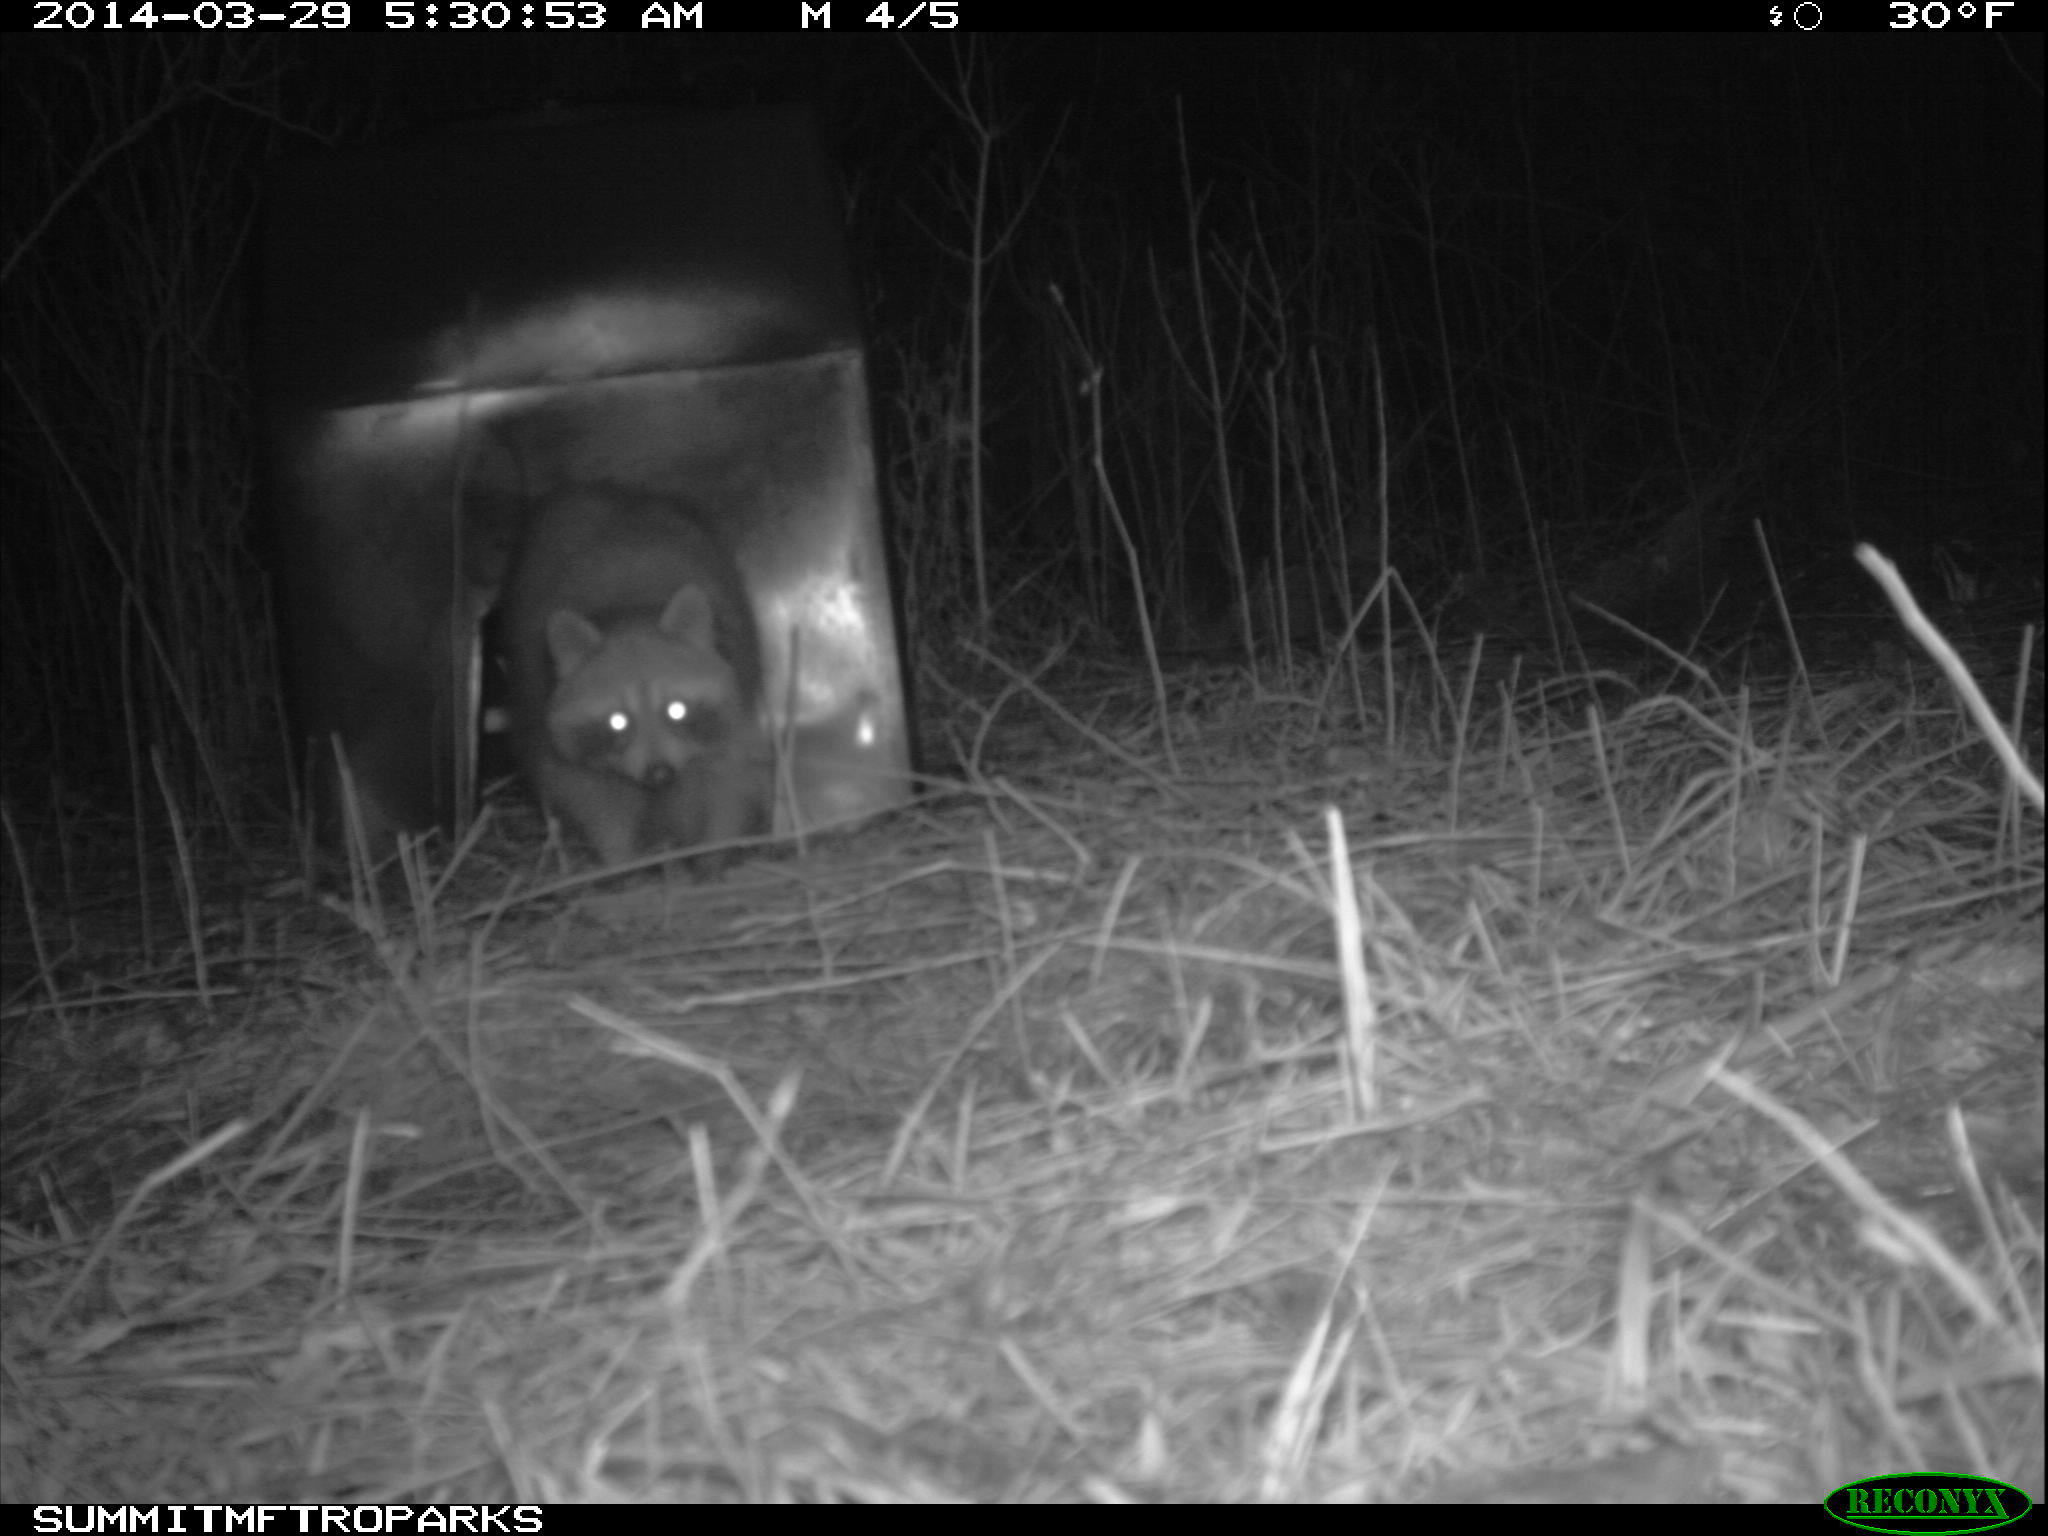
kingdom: Animalia
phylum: Chordata
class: Mammalia
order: Carnivora
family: Procyonidae
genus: Procyon
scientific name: Procyon lotor
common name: Raccoon
